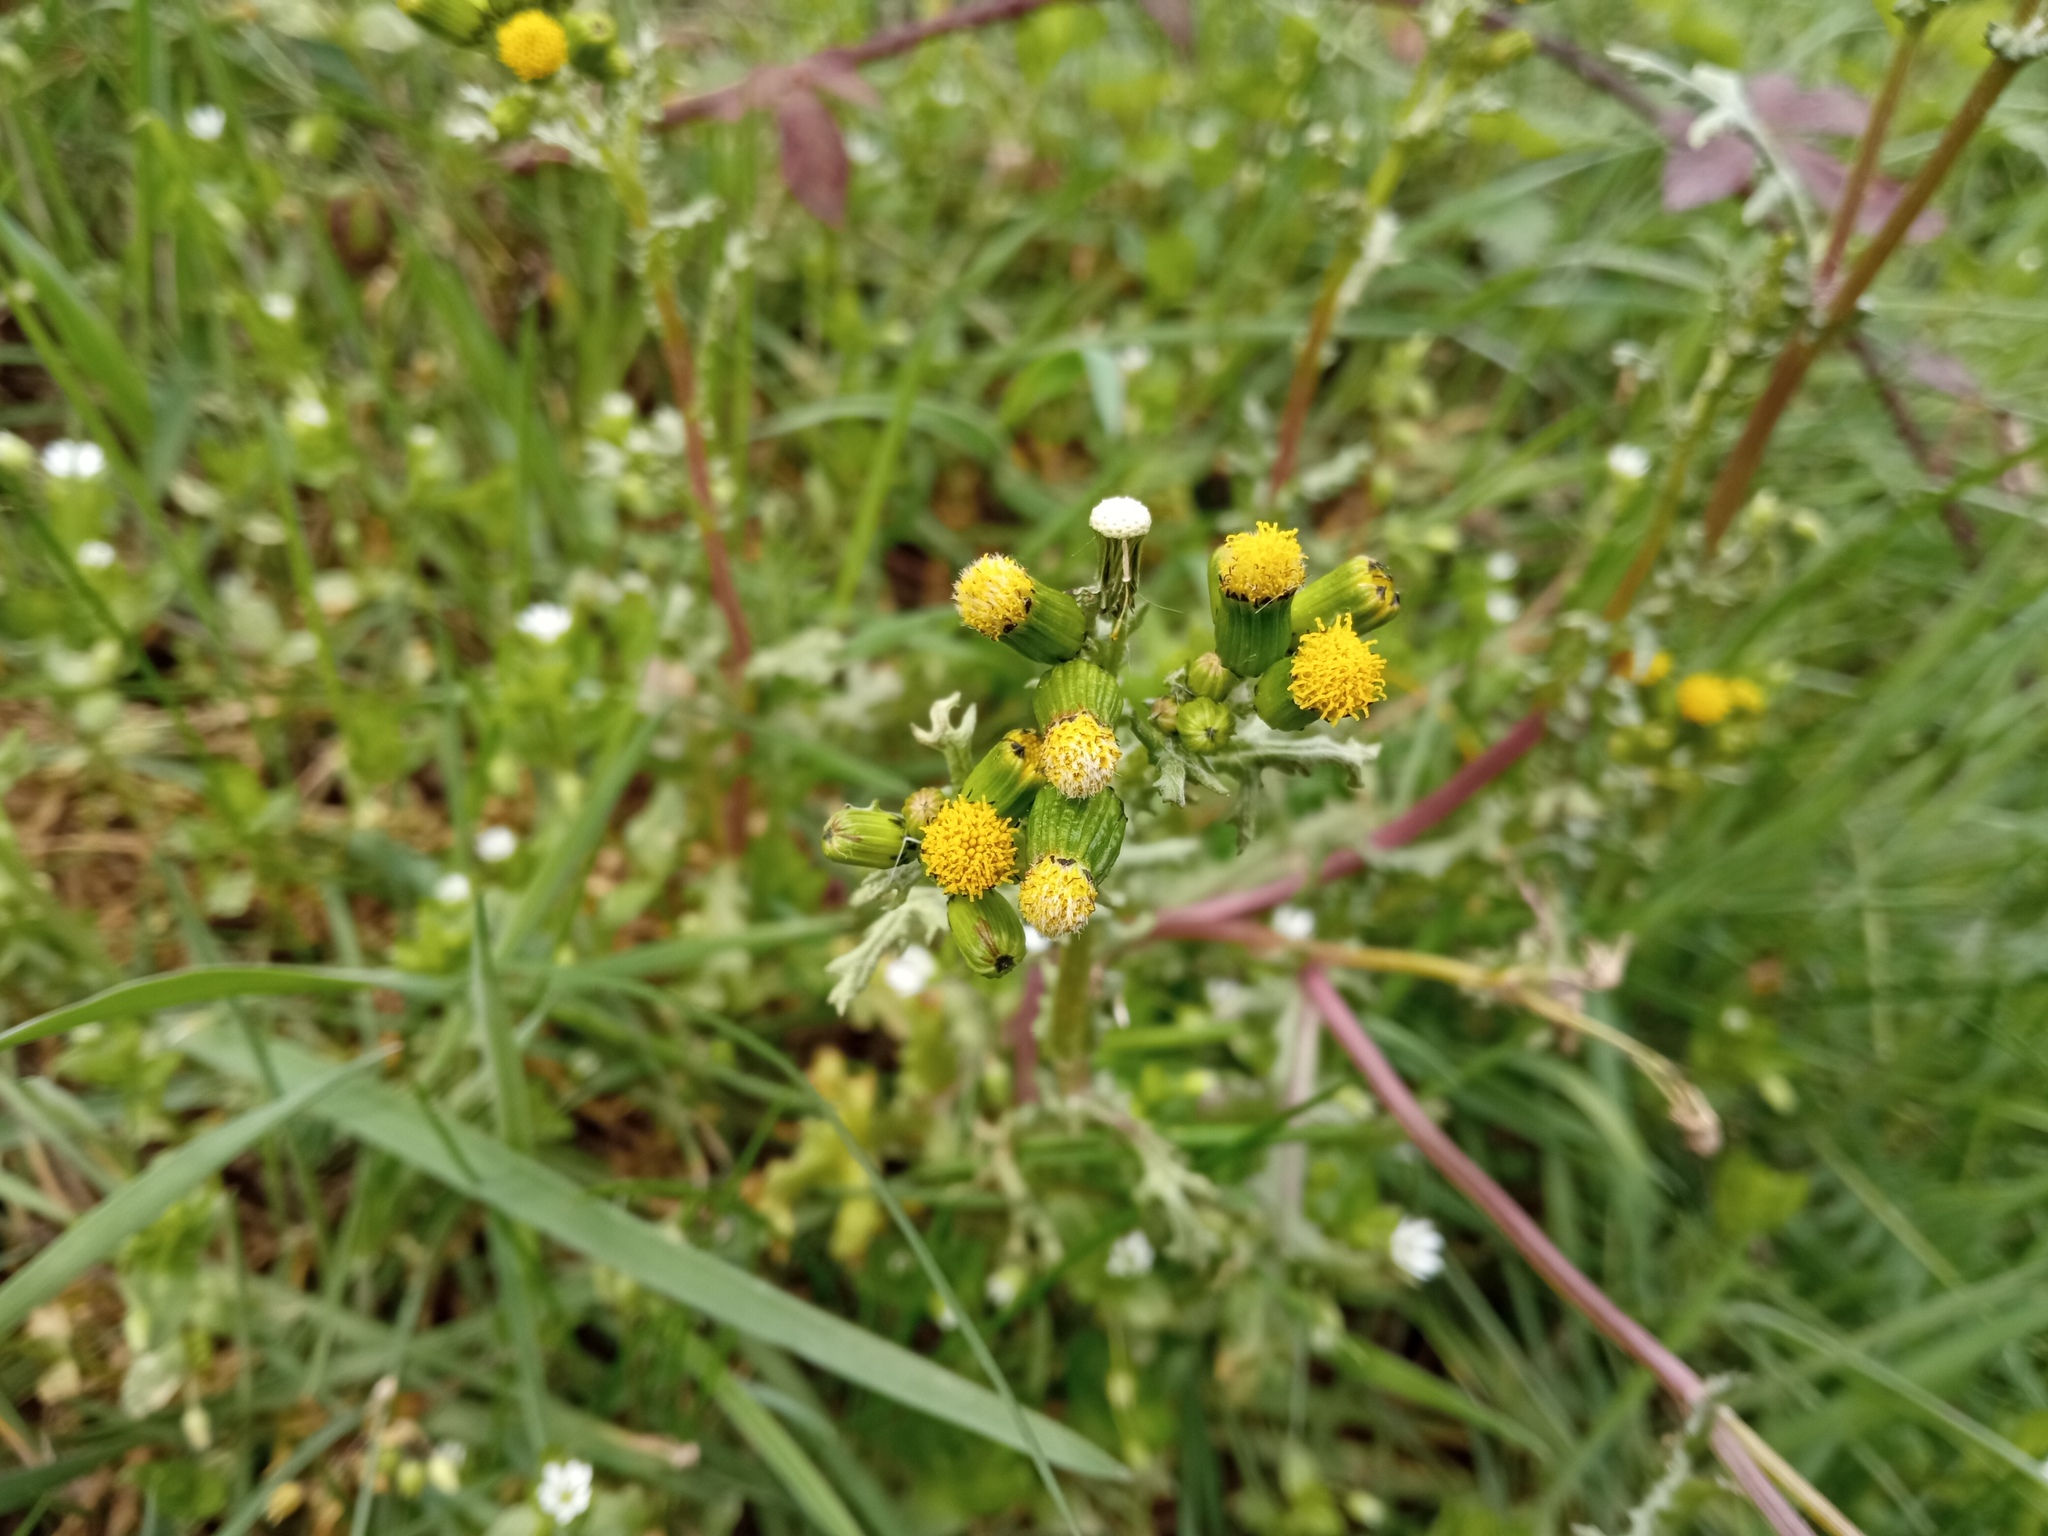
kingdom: Plantae
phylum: Tracheophyta
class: Magnoliopsida
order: Asterales
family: Asteraceae
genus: Senecio
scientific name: Senecio vulgaris
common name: Old-man-in-the-spring
